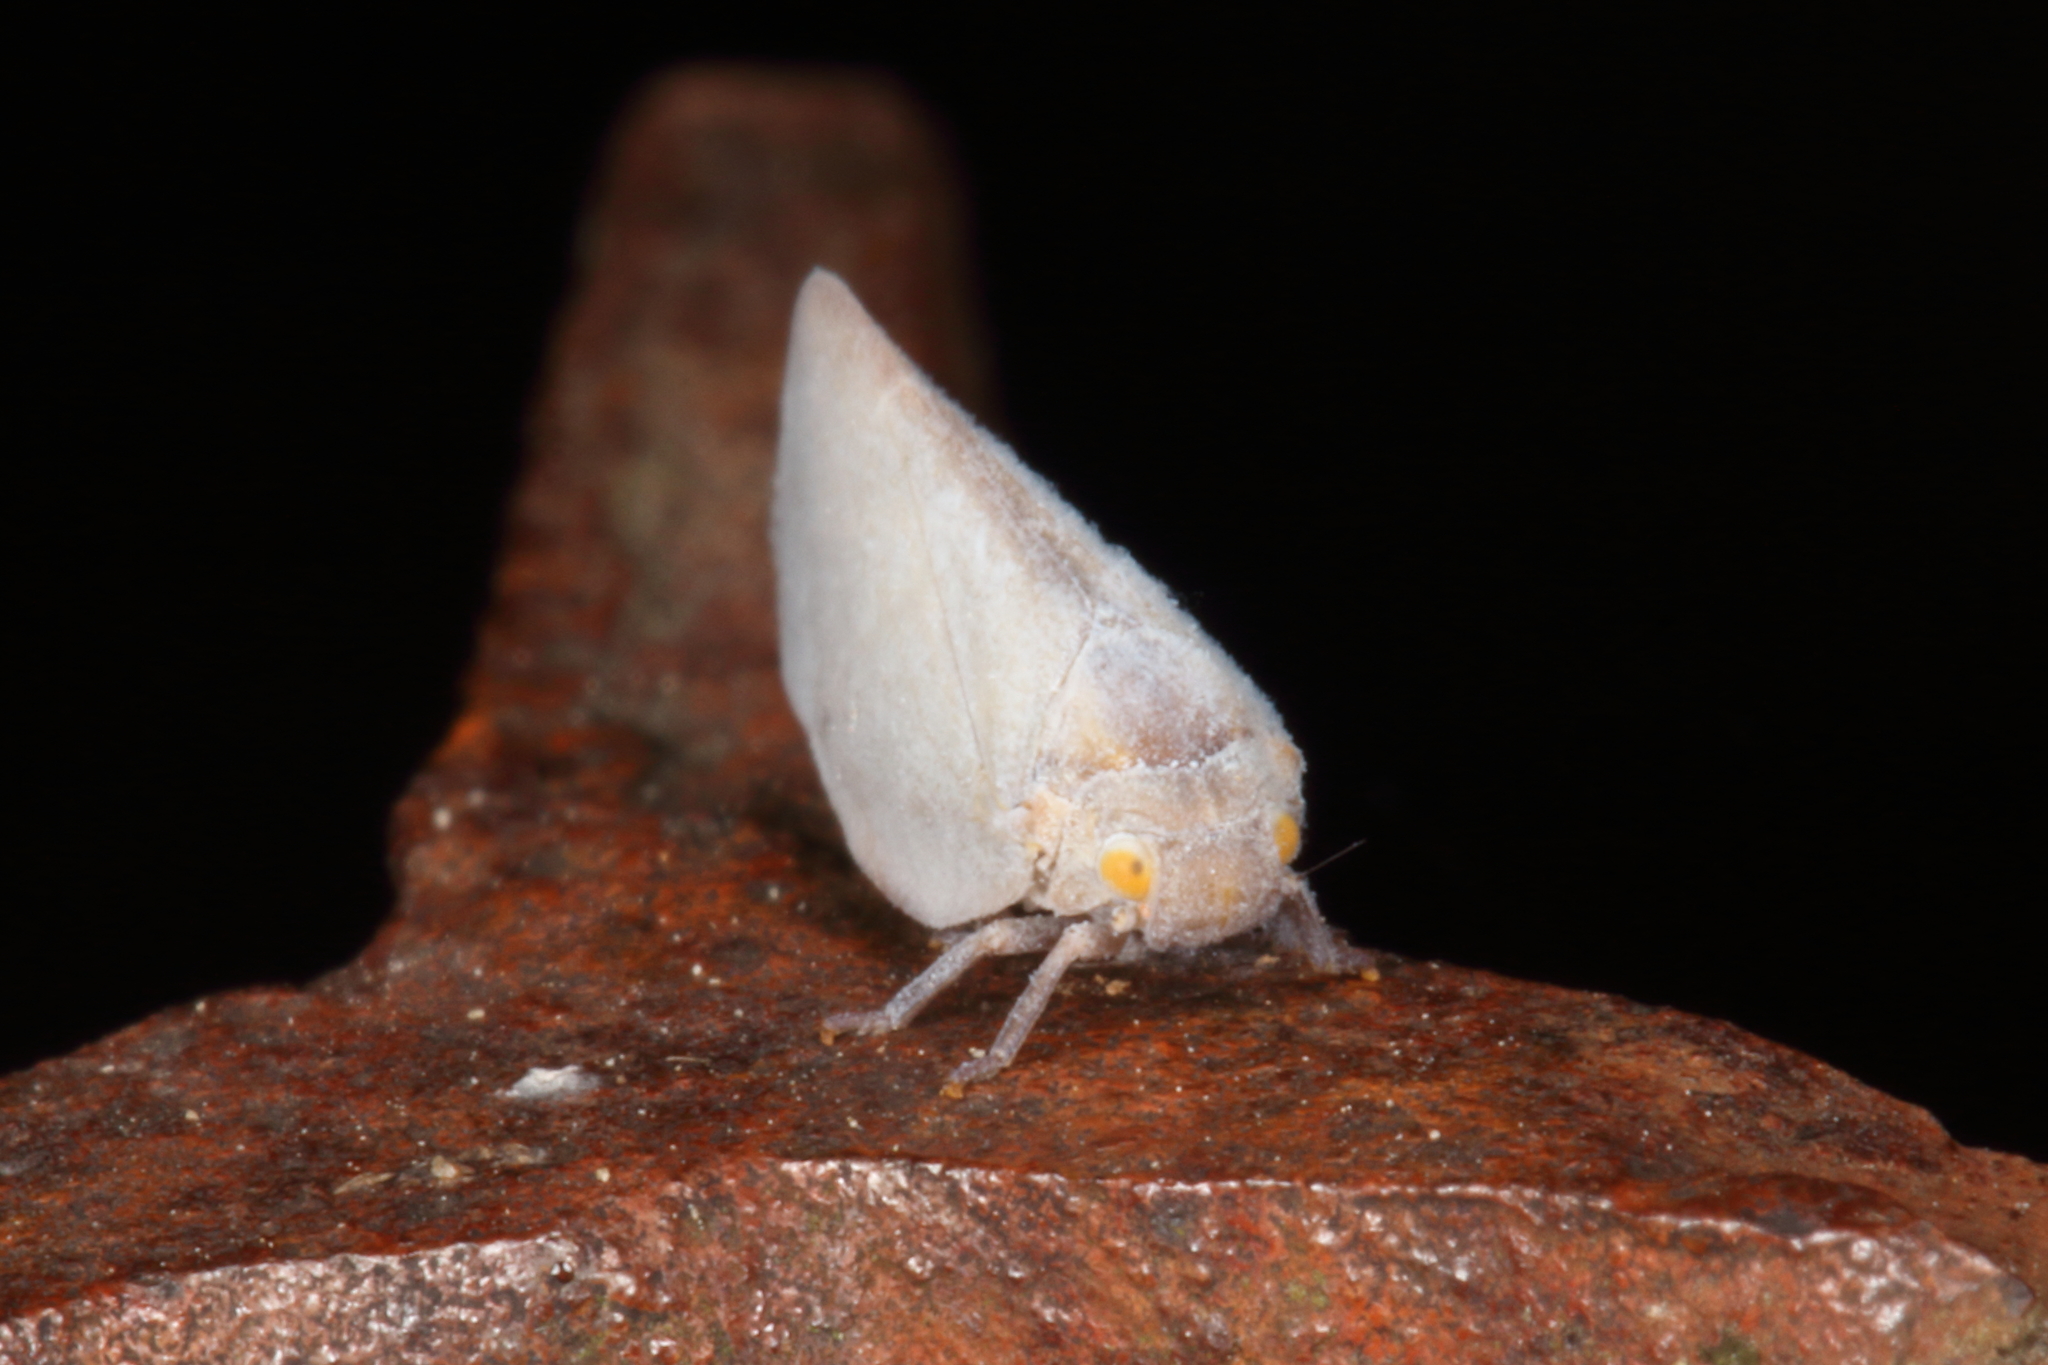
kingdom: Animalia
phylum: Arthropoda
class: Insecta
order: Hemiptera
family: Flatidae
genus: Anzora
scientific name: Anzora unicolor
